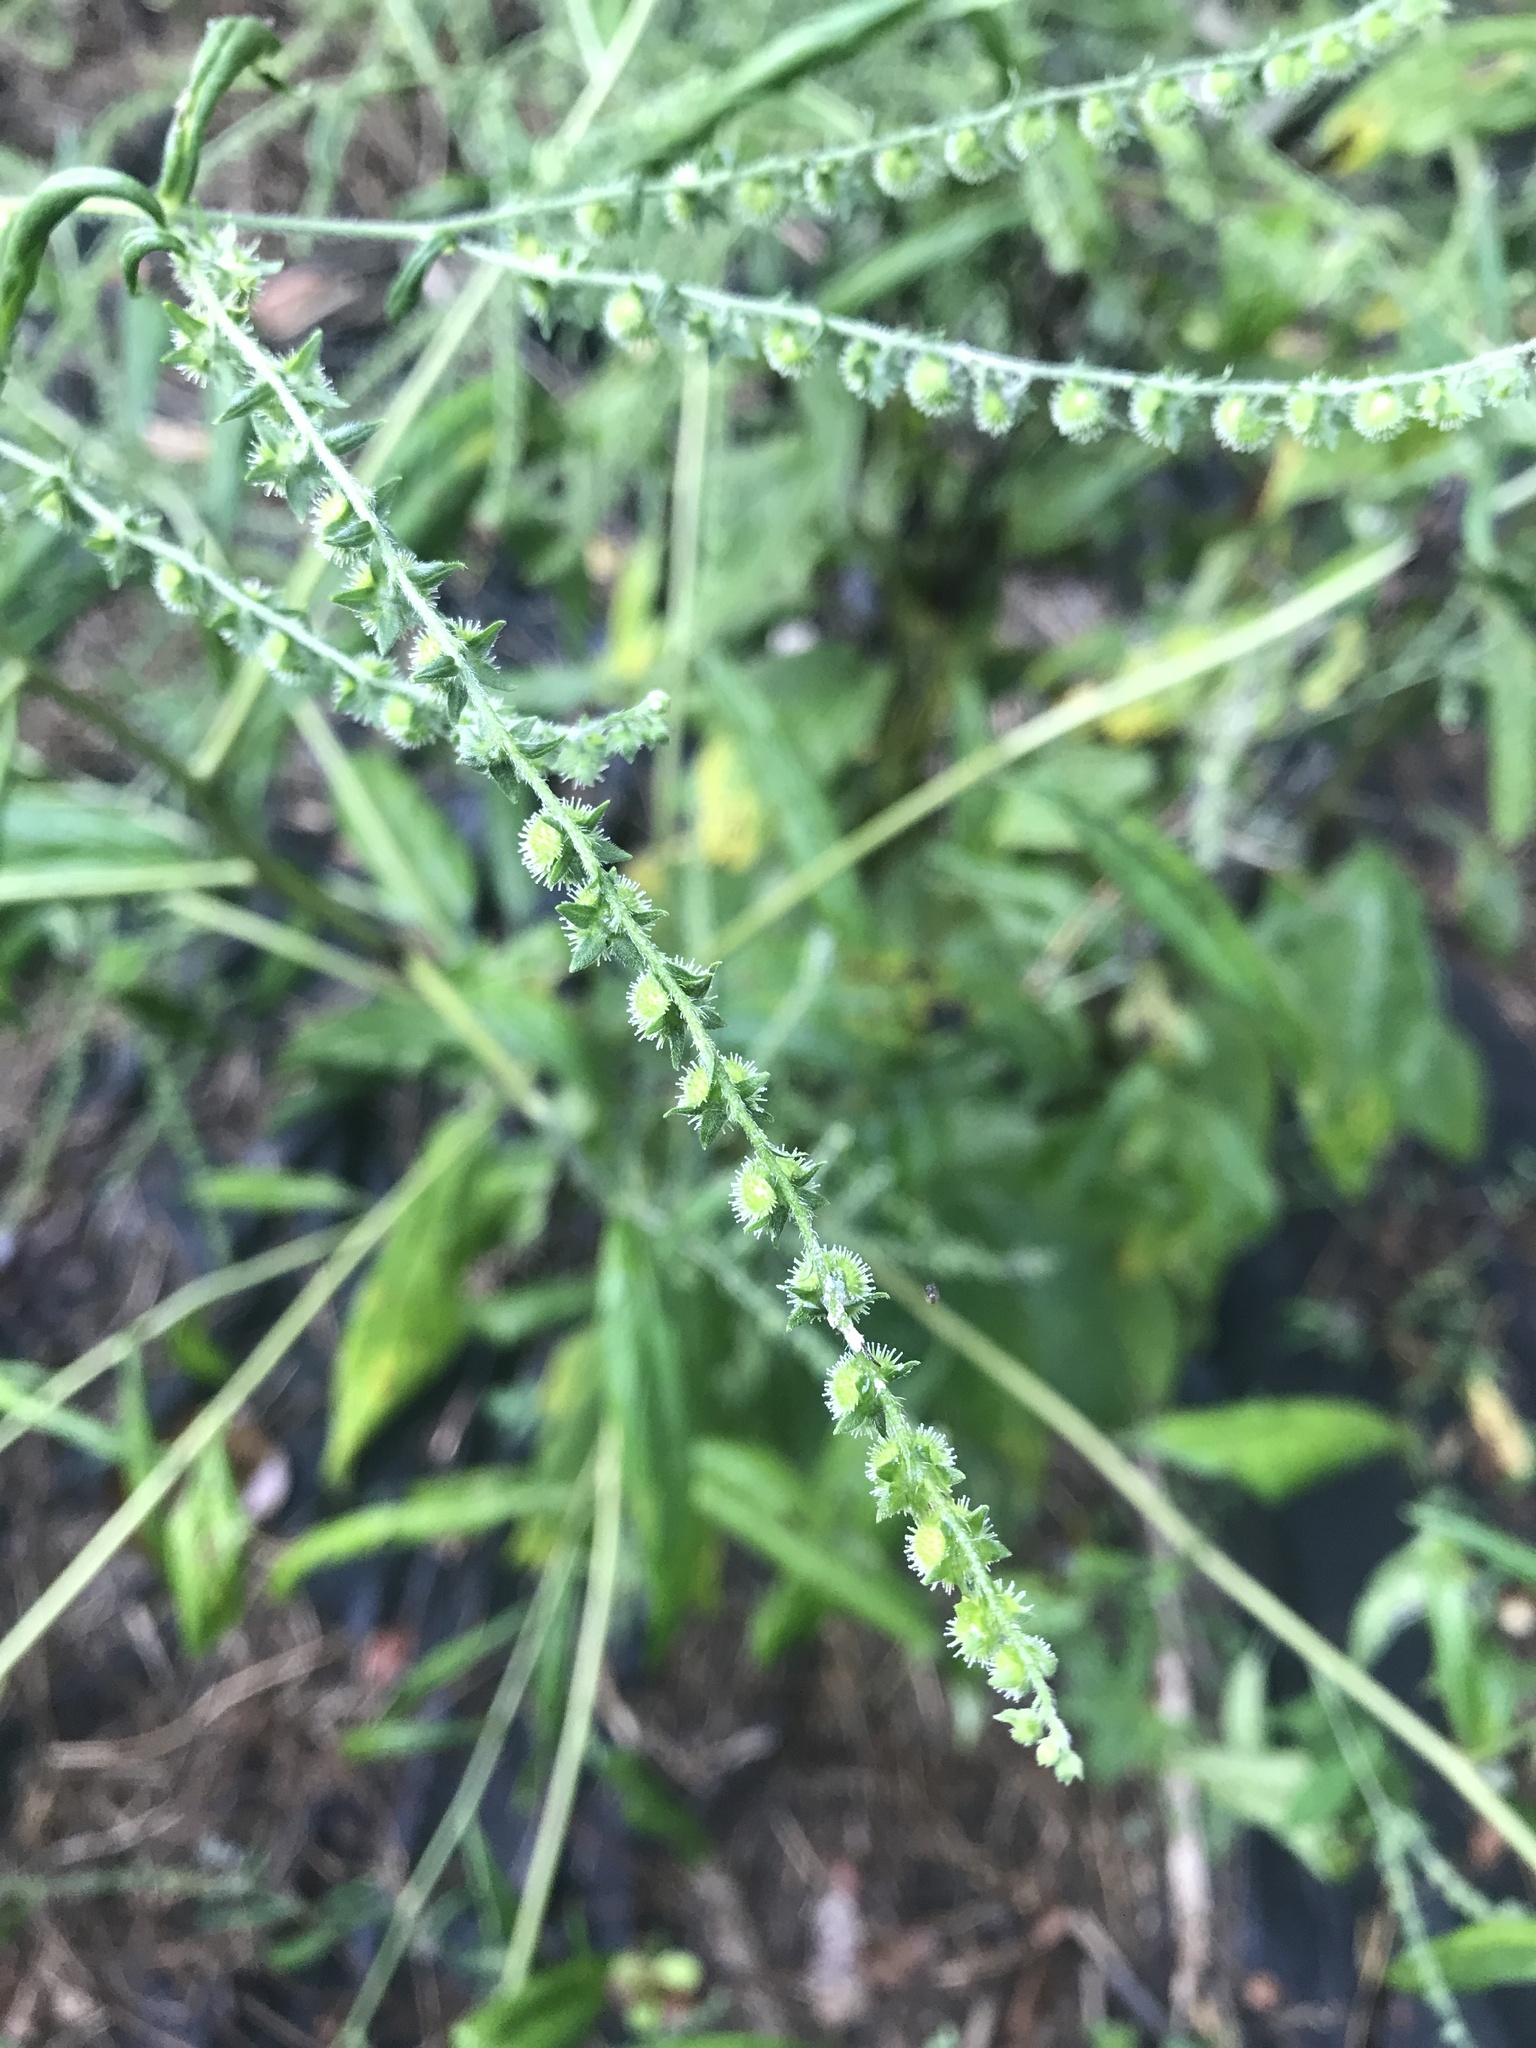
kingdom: Plantae
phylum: Tracheophyta
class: Magnoliopsida
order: Boraginales
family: Boraginaceae
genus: Hackelia
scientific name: Hackelia virginiana
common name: Beggar's-lice
